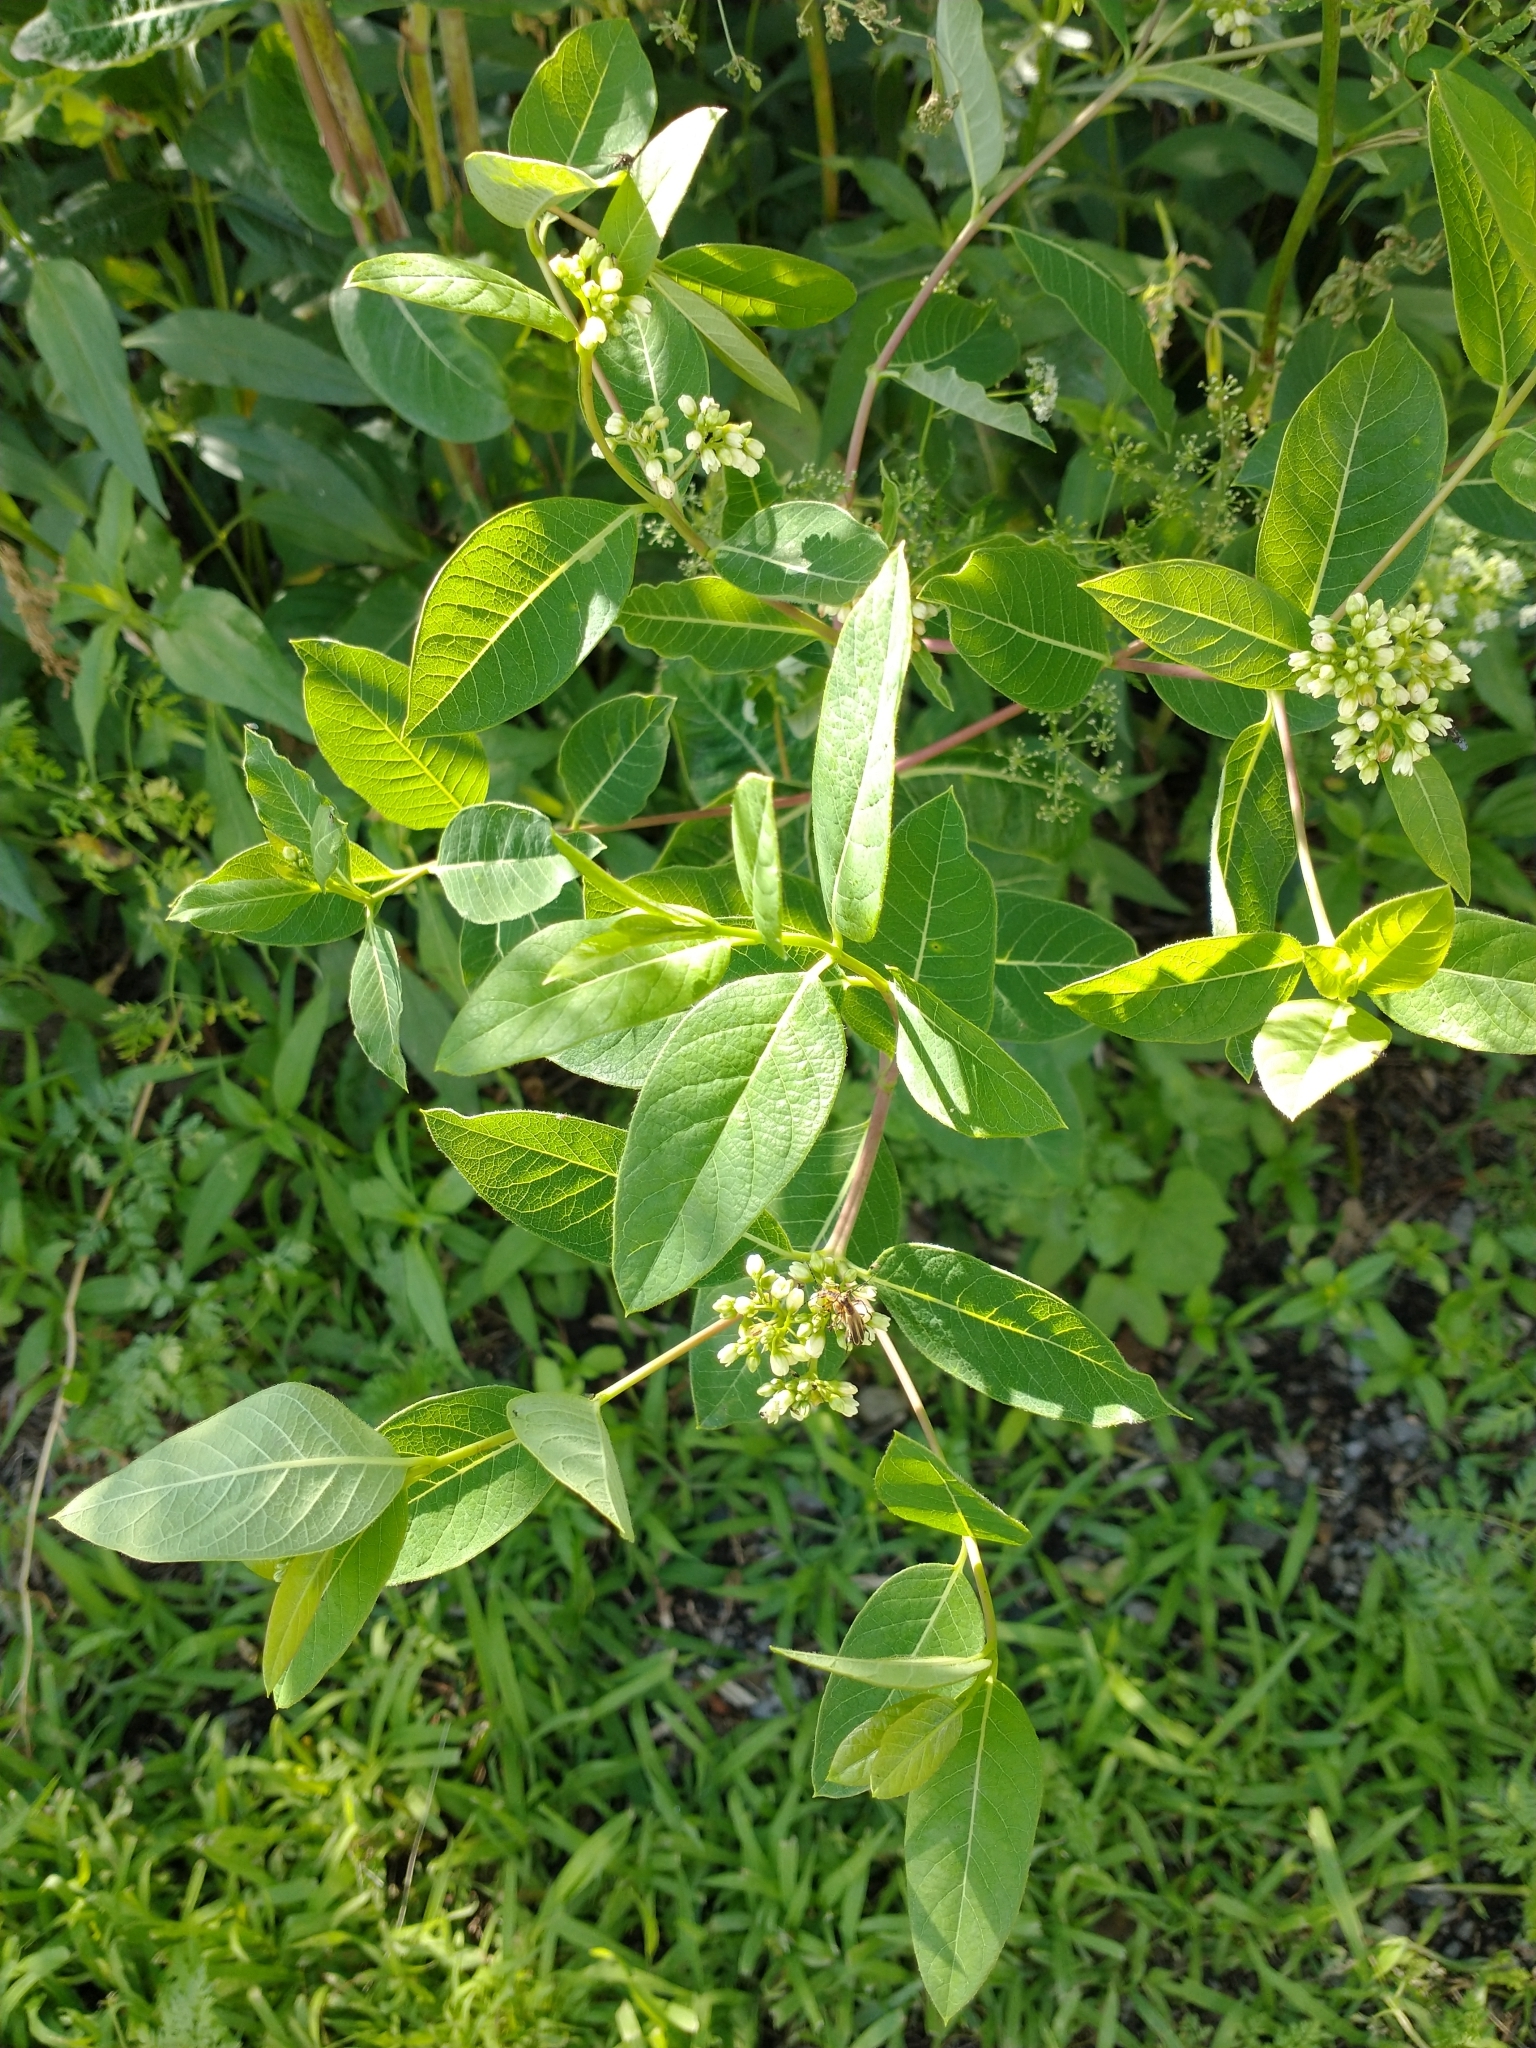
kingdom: Plantae
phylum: Tracheophyta
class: Magnoliopsida
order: Gentianales
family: Apocynaceae
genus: Apocynum
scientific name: Apocynum cannabinum
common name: Hemp dogbane
